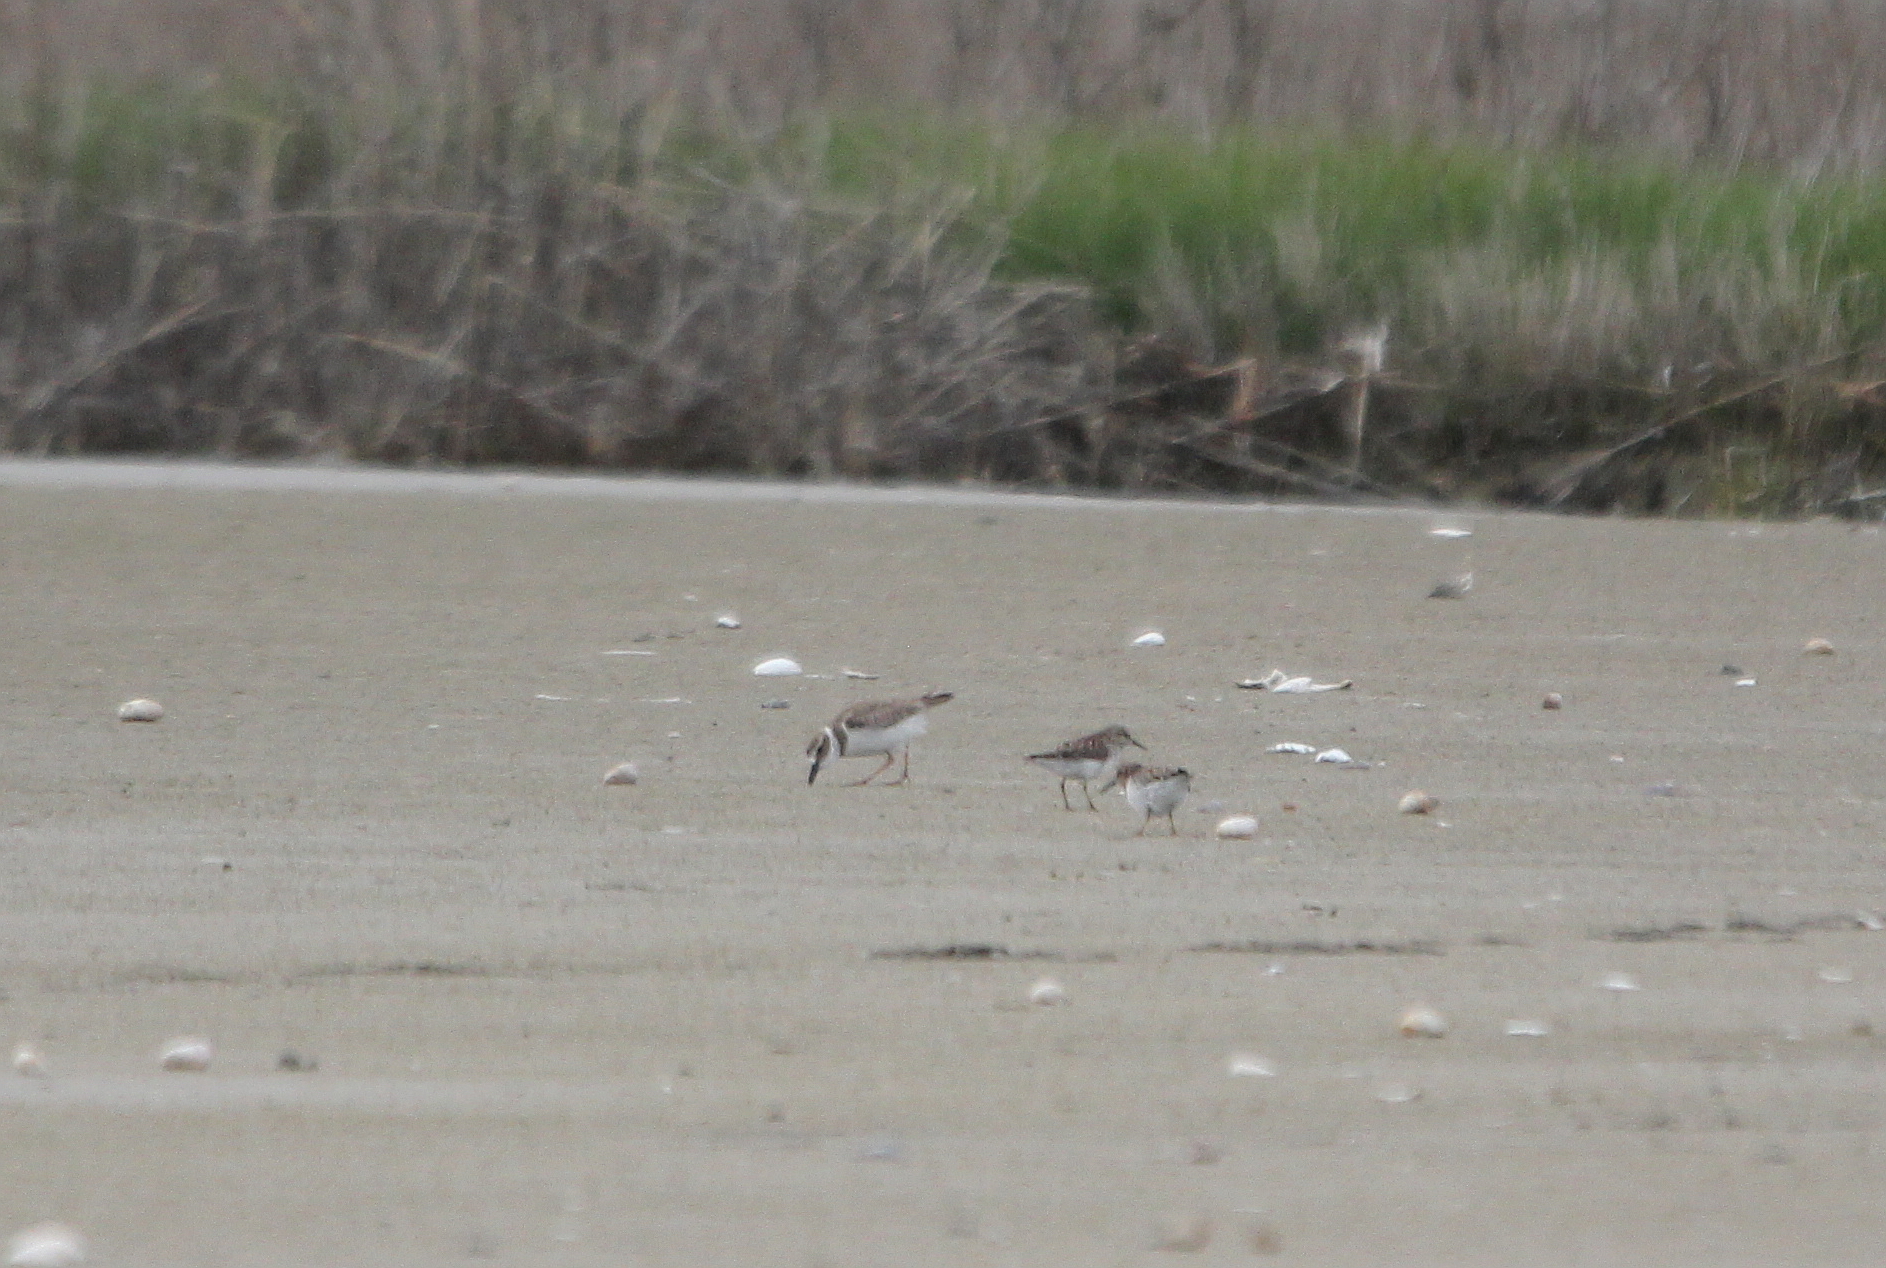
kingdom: Animalia
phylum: Chordata
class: Aves
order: Charadriiformes
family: Charadriidae
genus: Anarhynchus
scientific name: Anarhynchus
